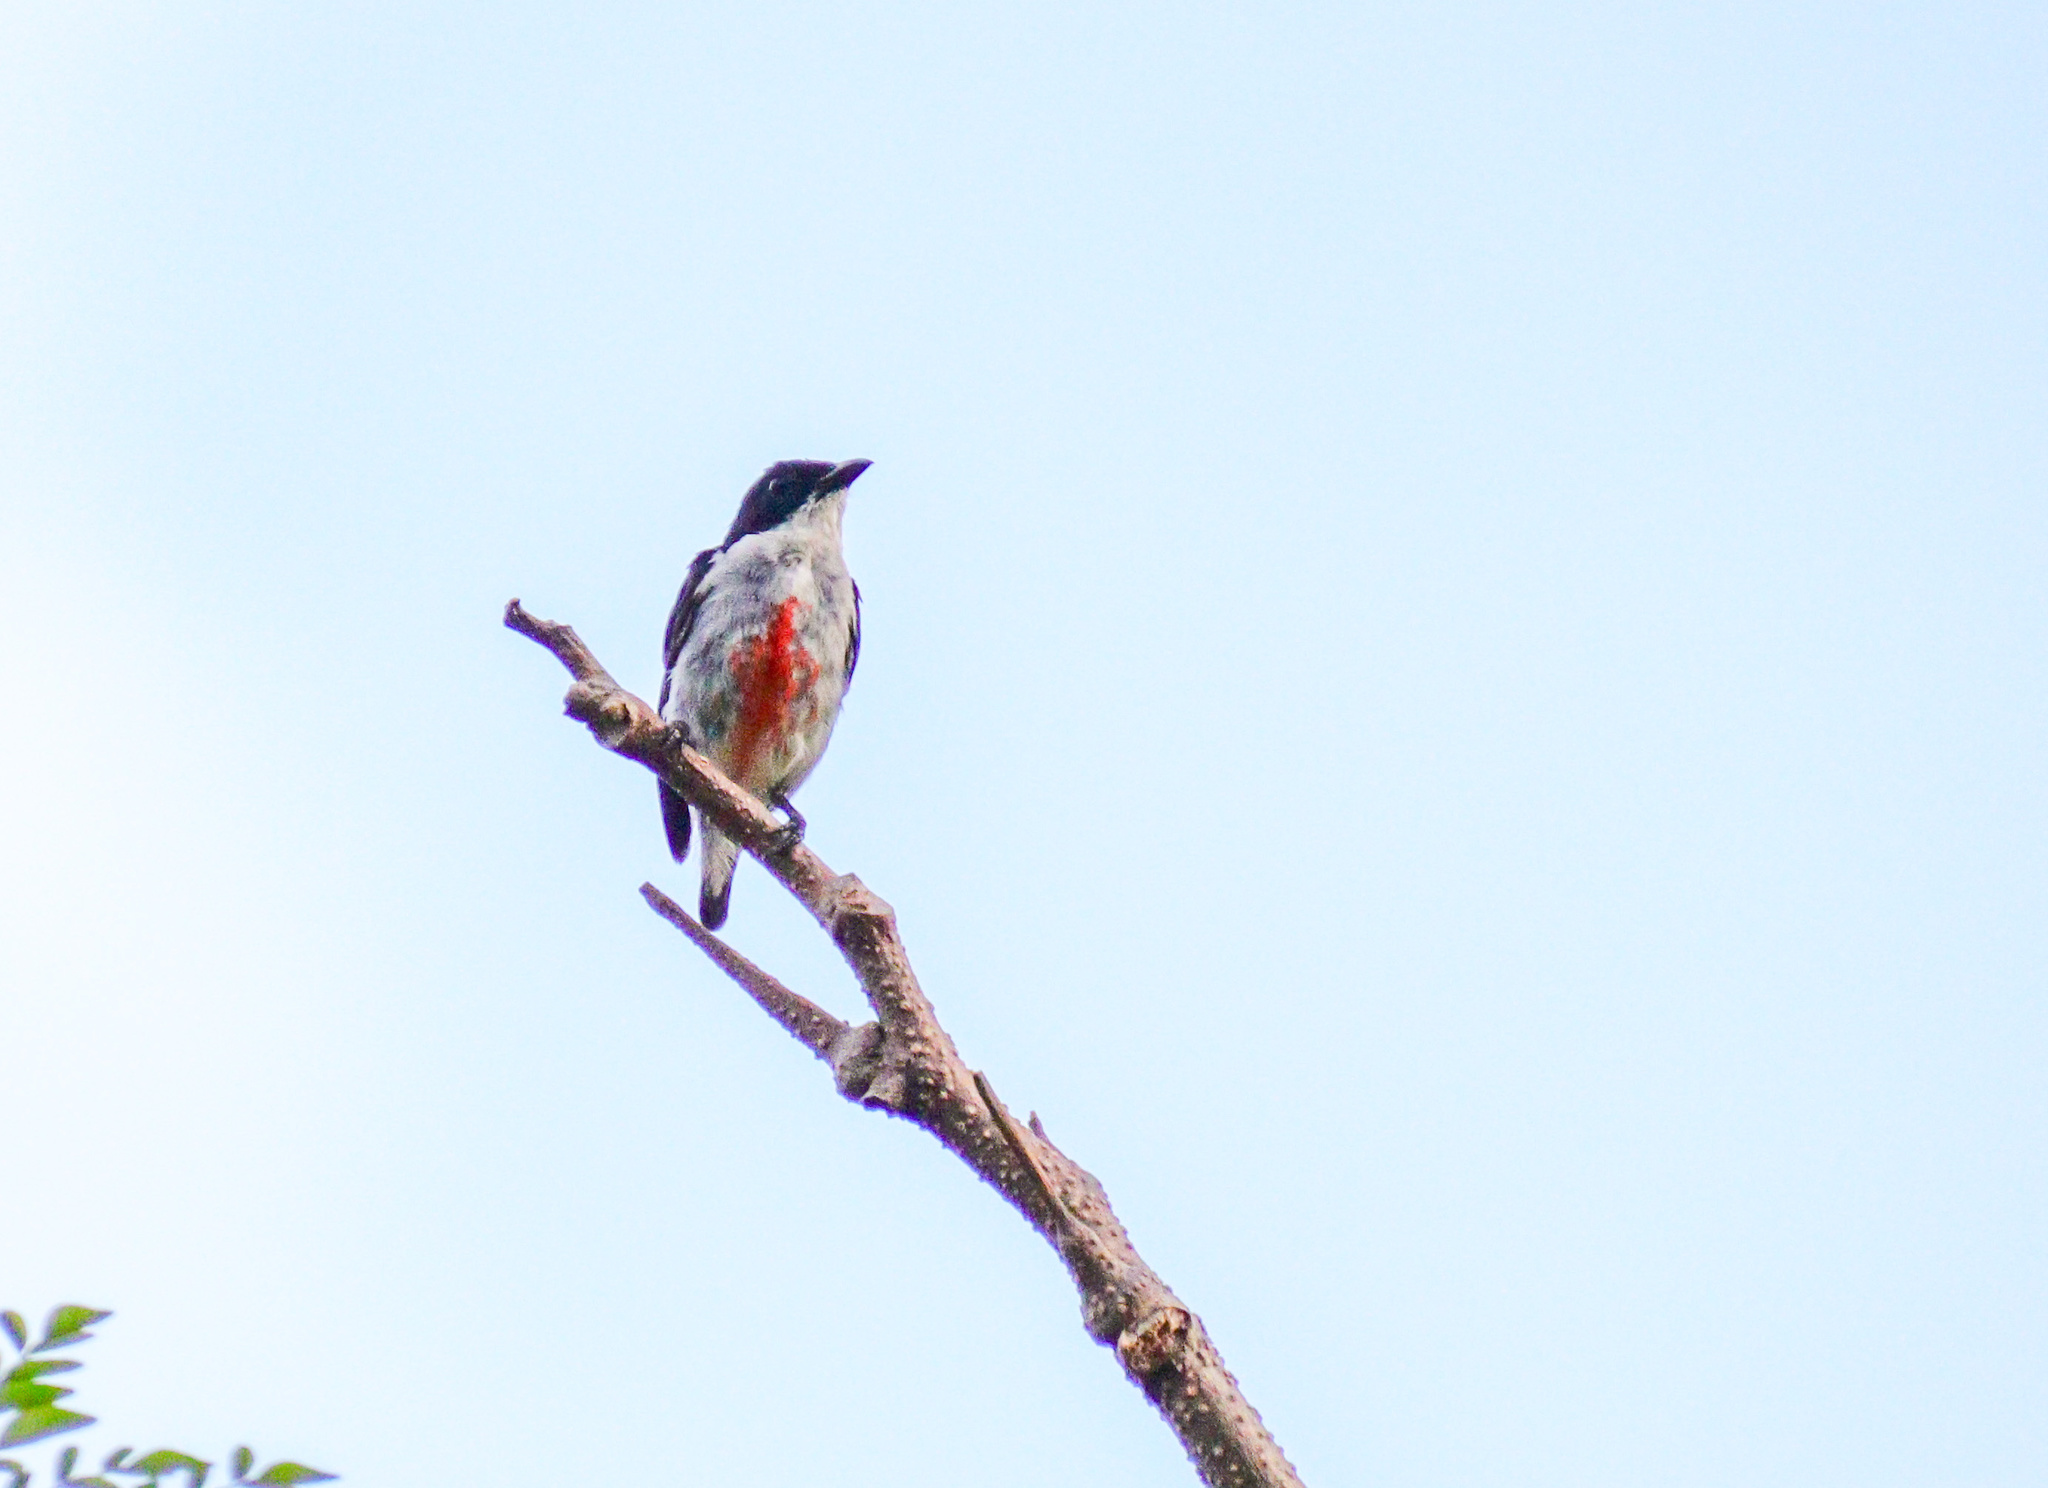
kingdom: Animalia
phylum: Chordata
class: Aves
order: Passeriformes
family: Dicaeidae
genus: Dicaeum
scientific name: Dicaeum australe
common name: Red-keeled flowerpecker
